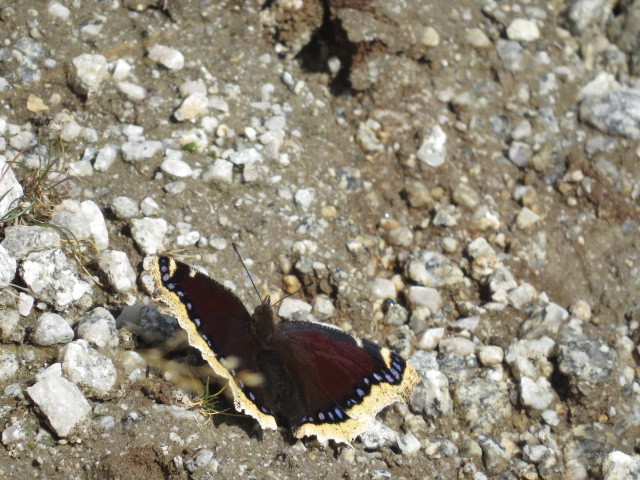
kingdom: Animalia
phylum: Arthropoda
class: Insecta
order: Lepidoptera
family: Nymphalidae
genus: Nymphalis
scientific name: Nymphalis antiopa
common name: Camberwell beauty
